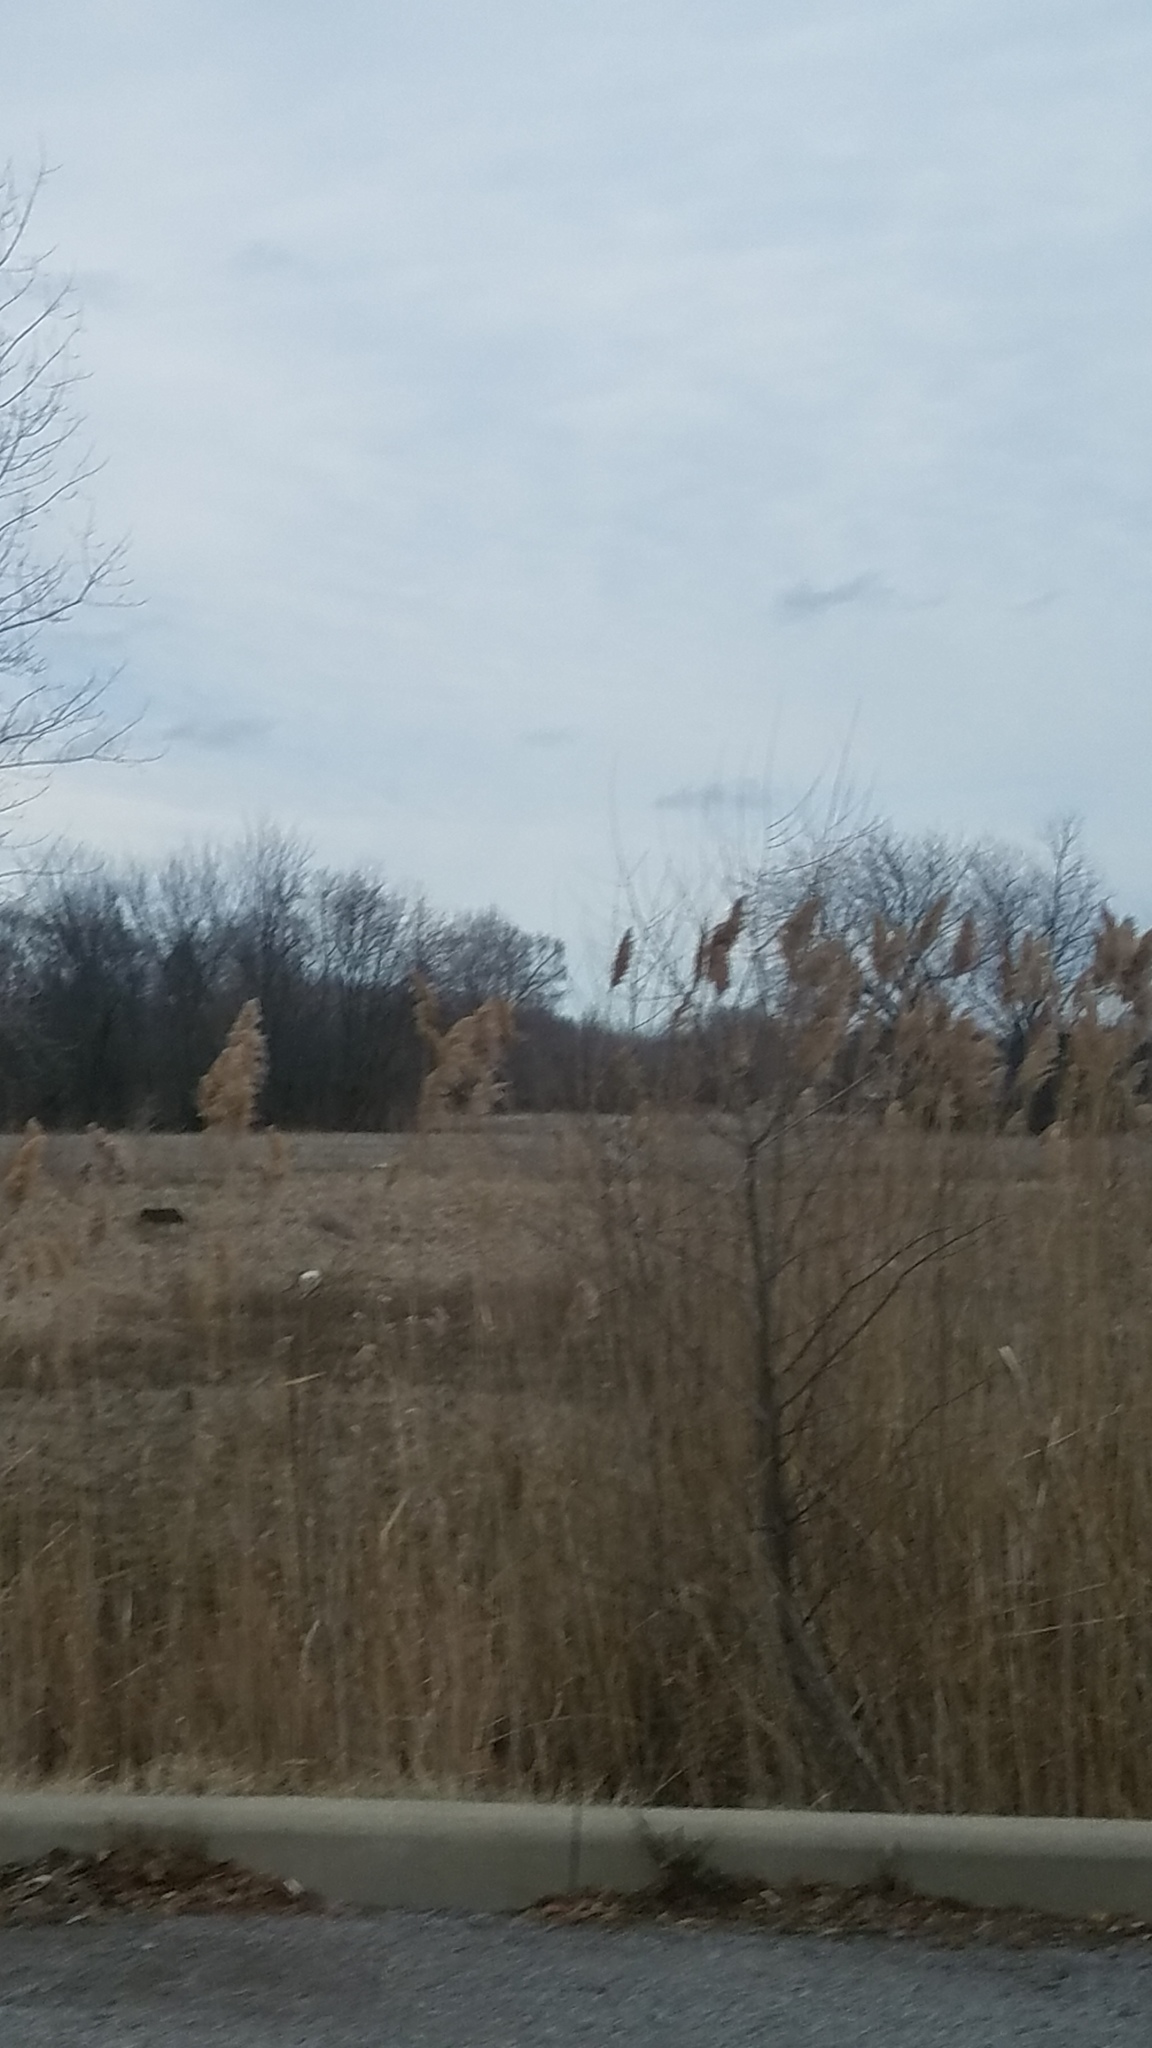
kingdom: Plantae
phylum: Tracheophyta
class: Liliopsida
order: Poales
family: Poaceae
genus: Phragmites
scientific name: Phragmites australis
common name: Common reed
